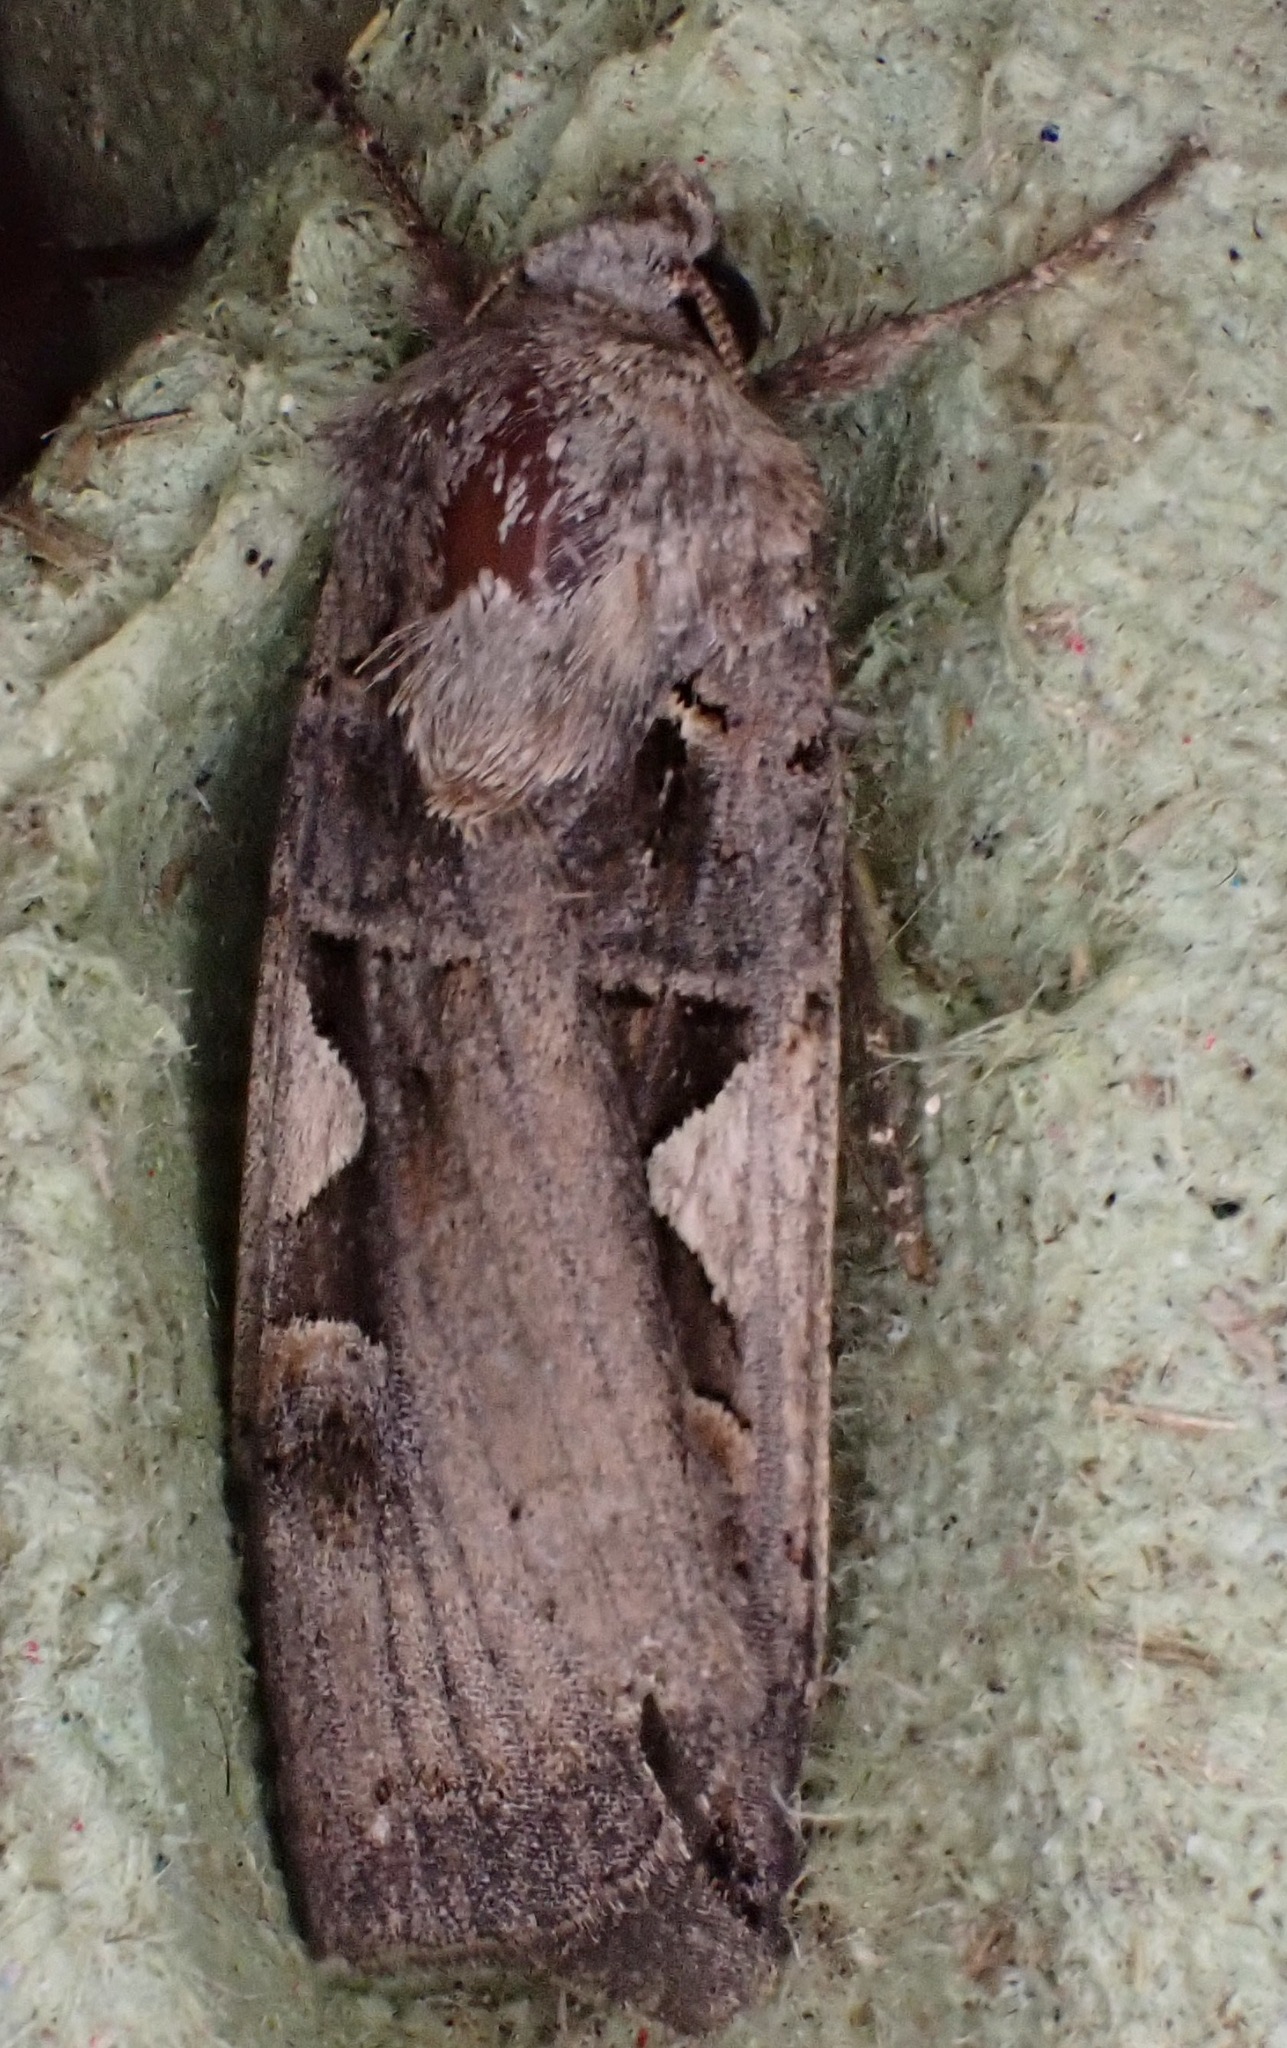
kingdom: Animalia
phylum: Arthropoda
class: Insecta
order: Lepidoptera
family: Noctuidae
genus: Xestia
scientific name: Xestia c-nigrum
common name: Setaceous hebrew character
